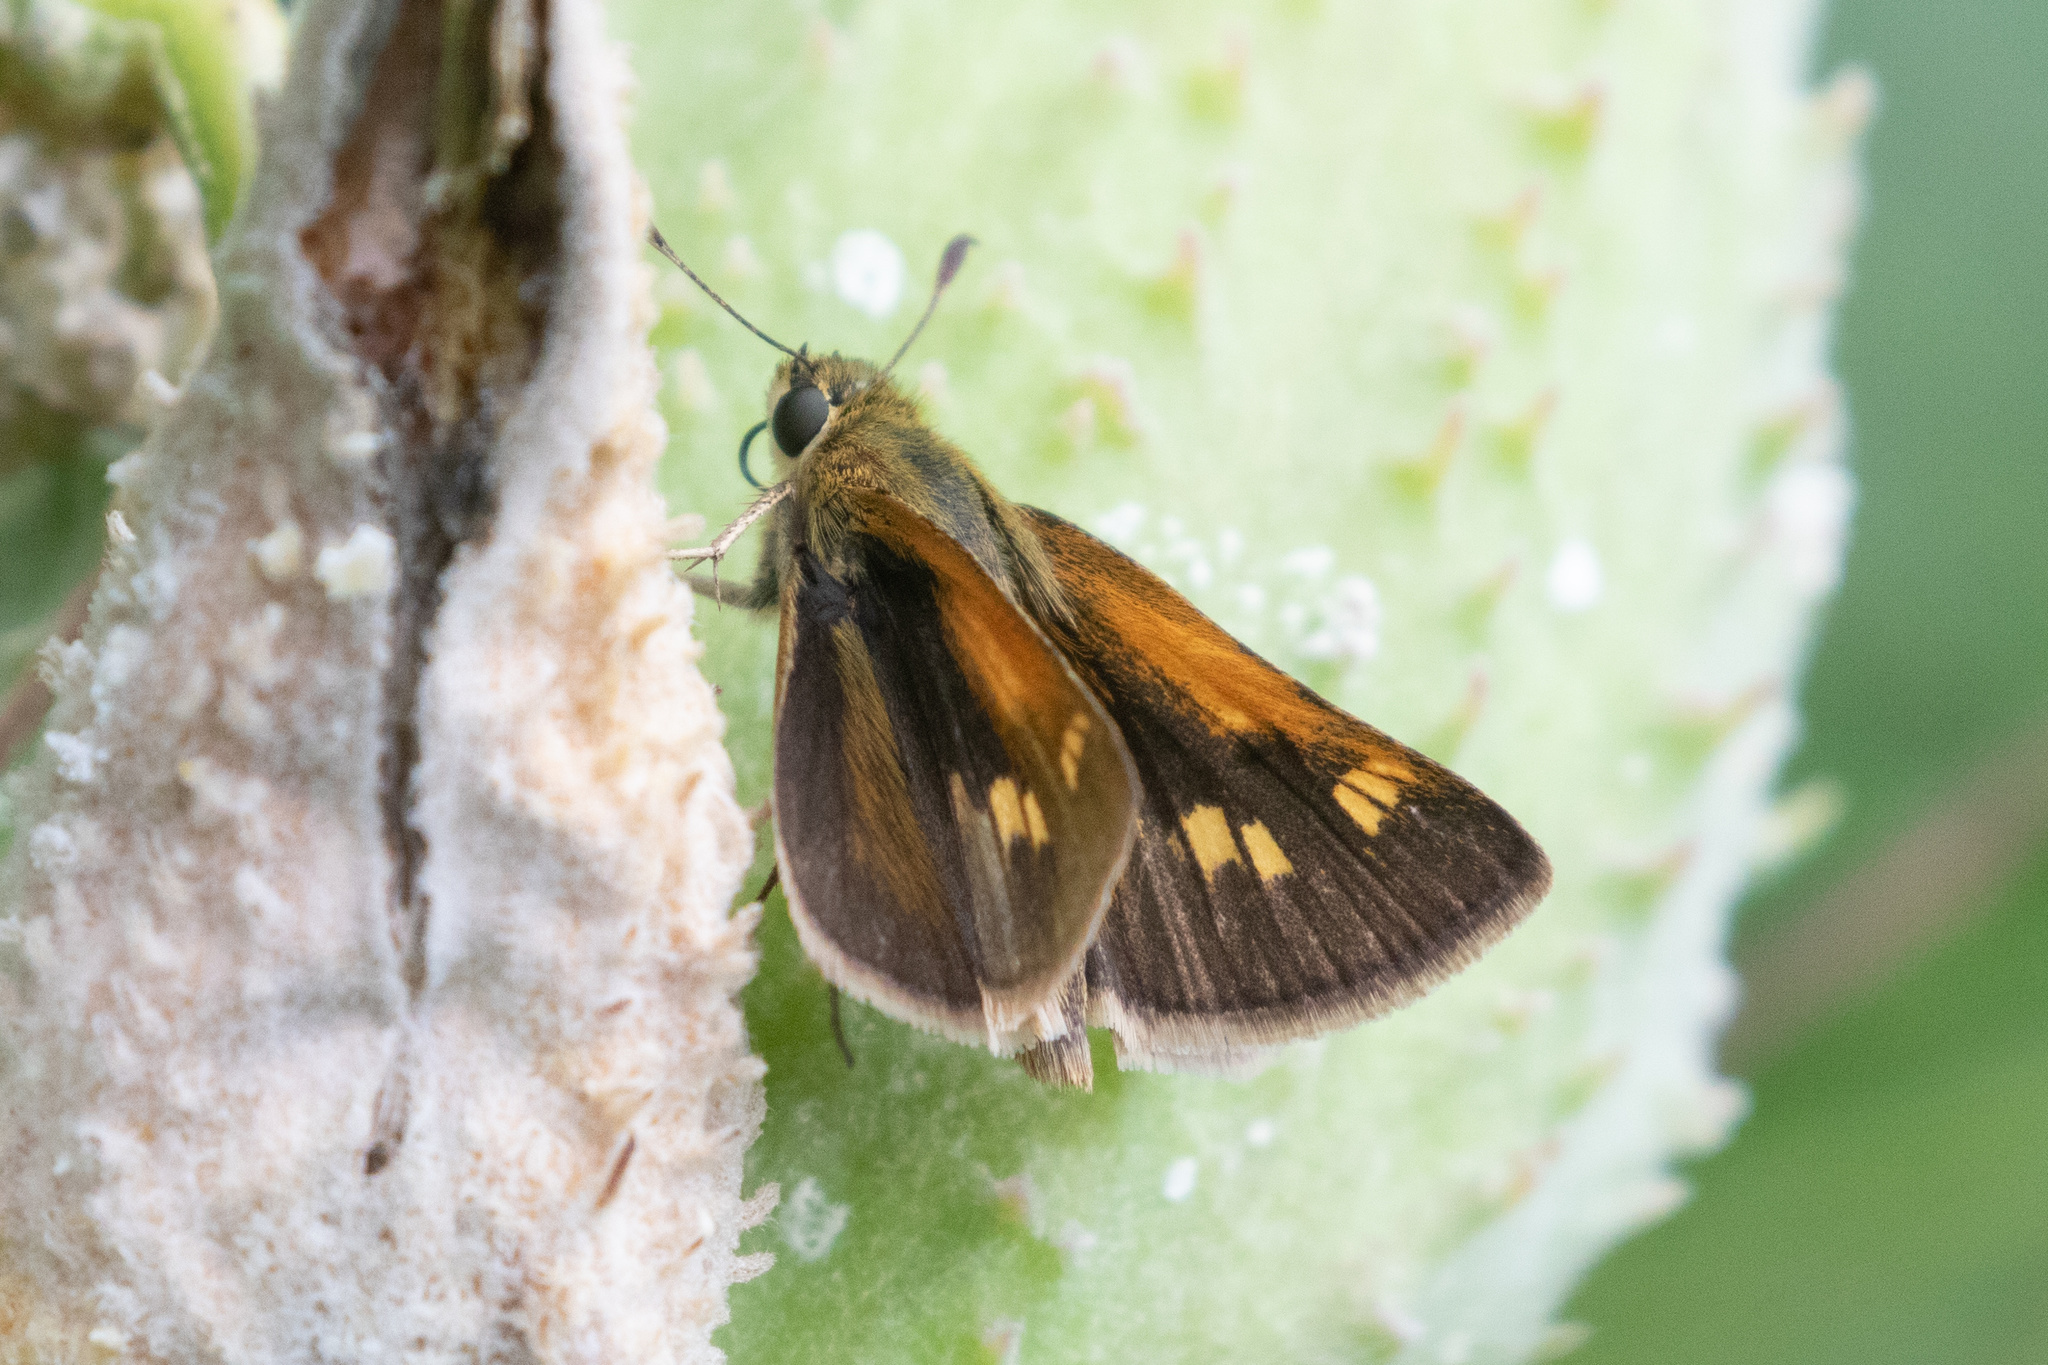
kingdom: Animalia
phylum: Arthropoda
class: Insecta
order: Lepidoptera
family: Hesperiidae
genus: Polites
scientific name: Polites themistocles
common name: Tawny-edged skipper
